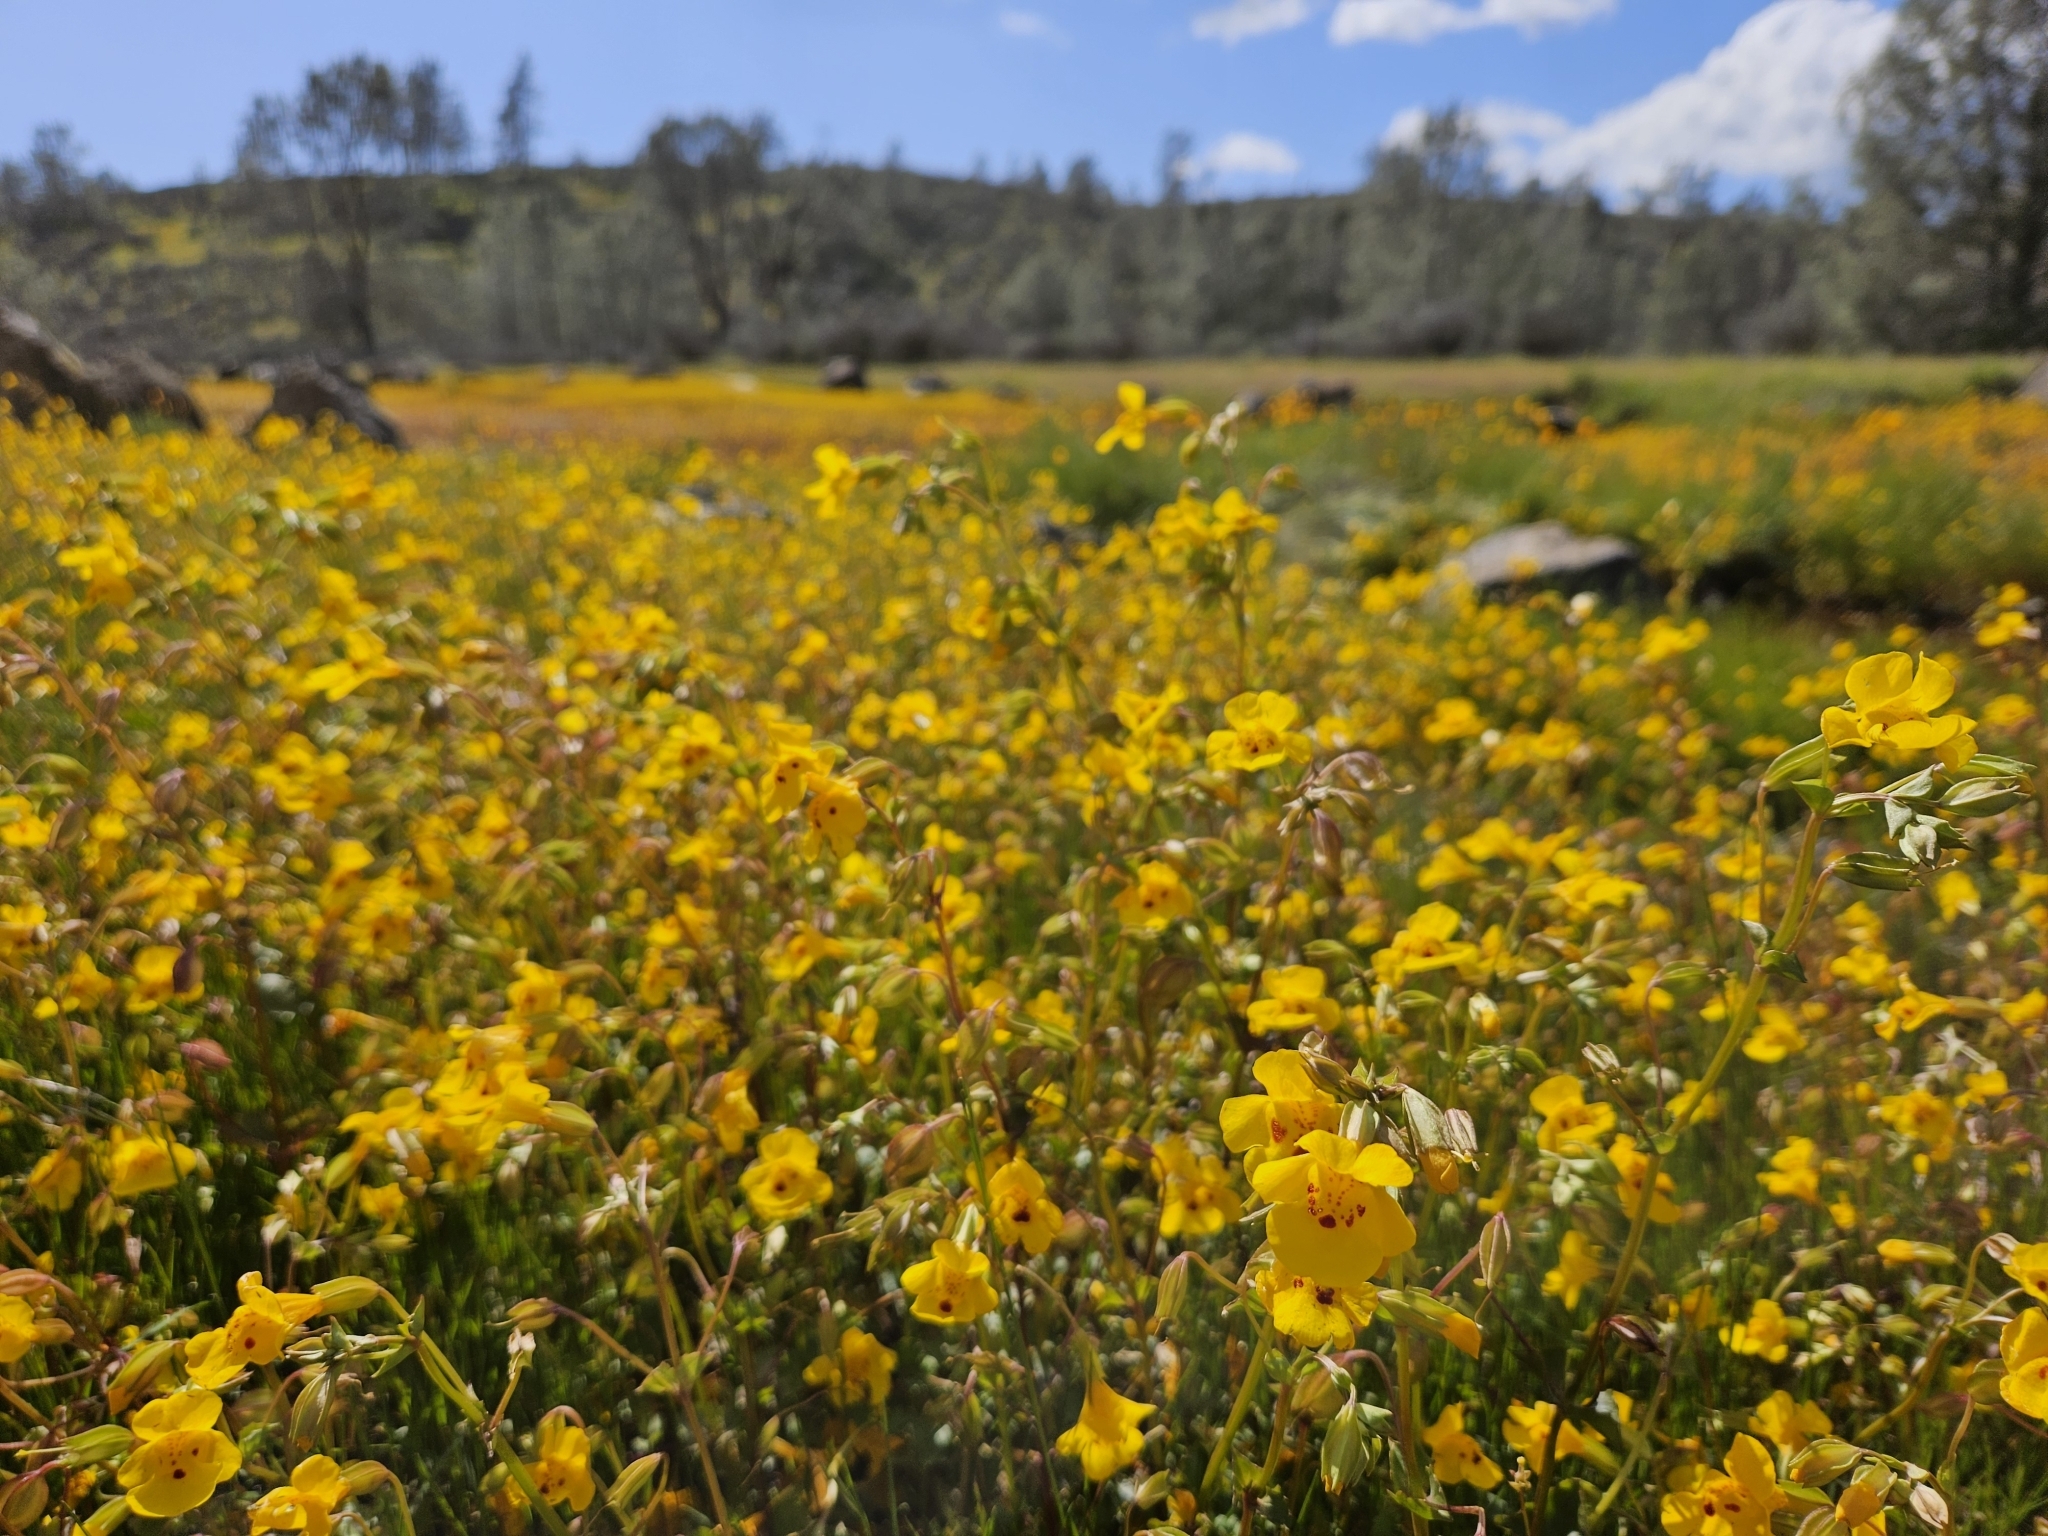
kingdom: Plantae
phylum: Tracheophyta
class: Magnoliopsida
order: Lamiales
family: Phrymaceae
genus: Erythranthe
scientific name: Erythranthe guttata
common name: Monkeyflower
